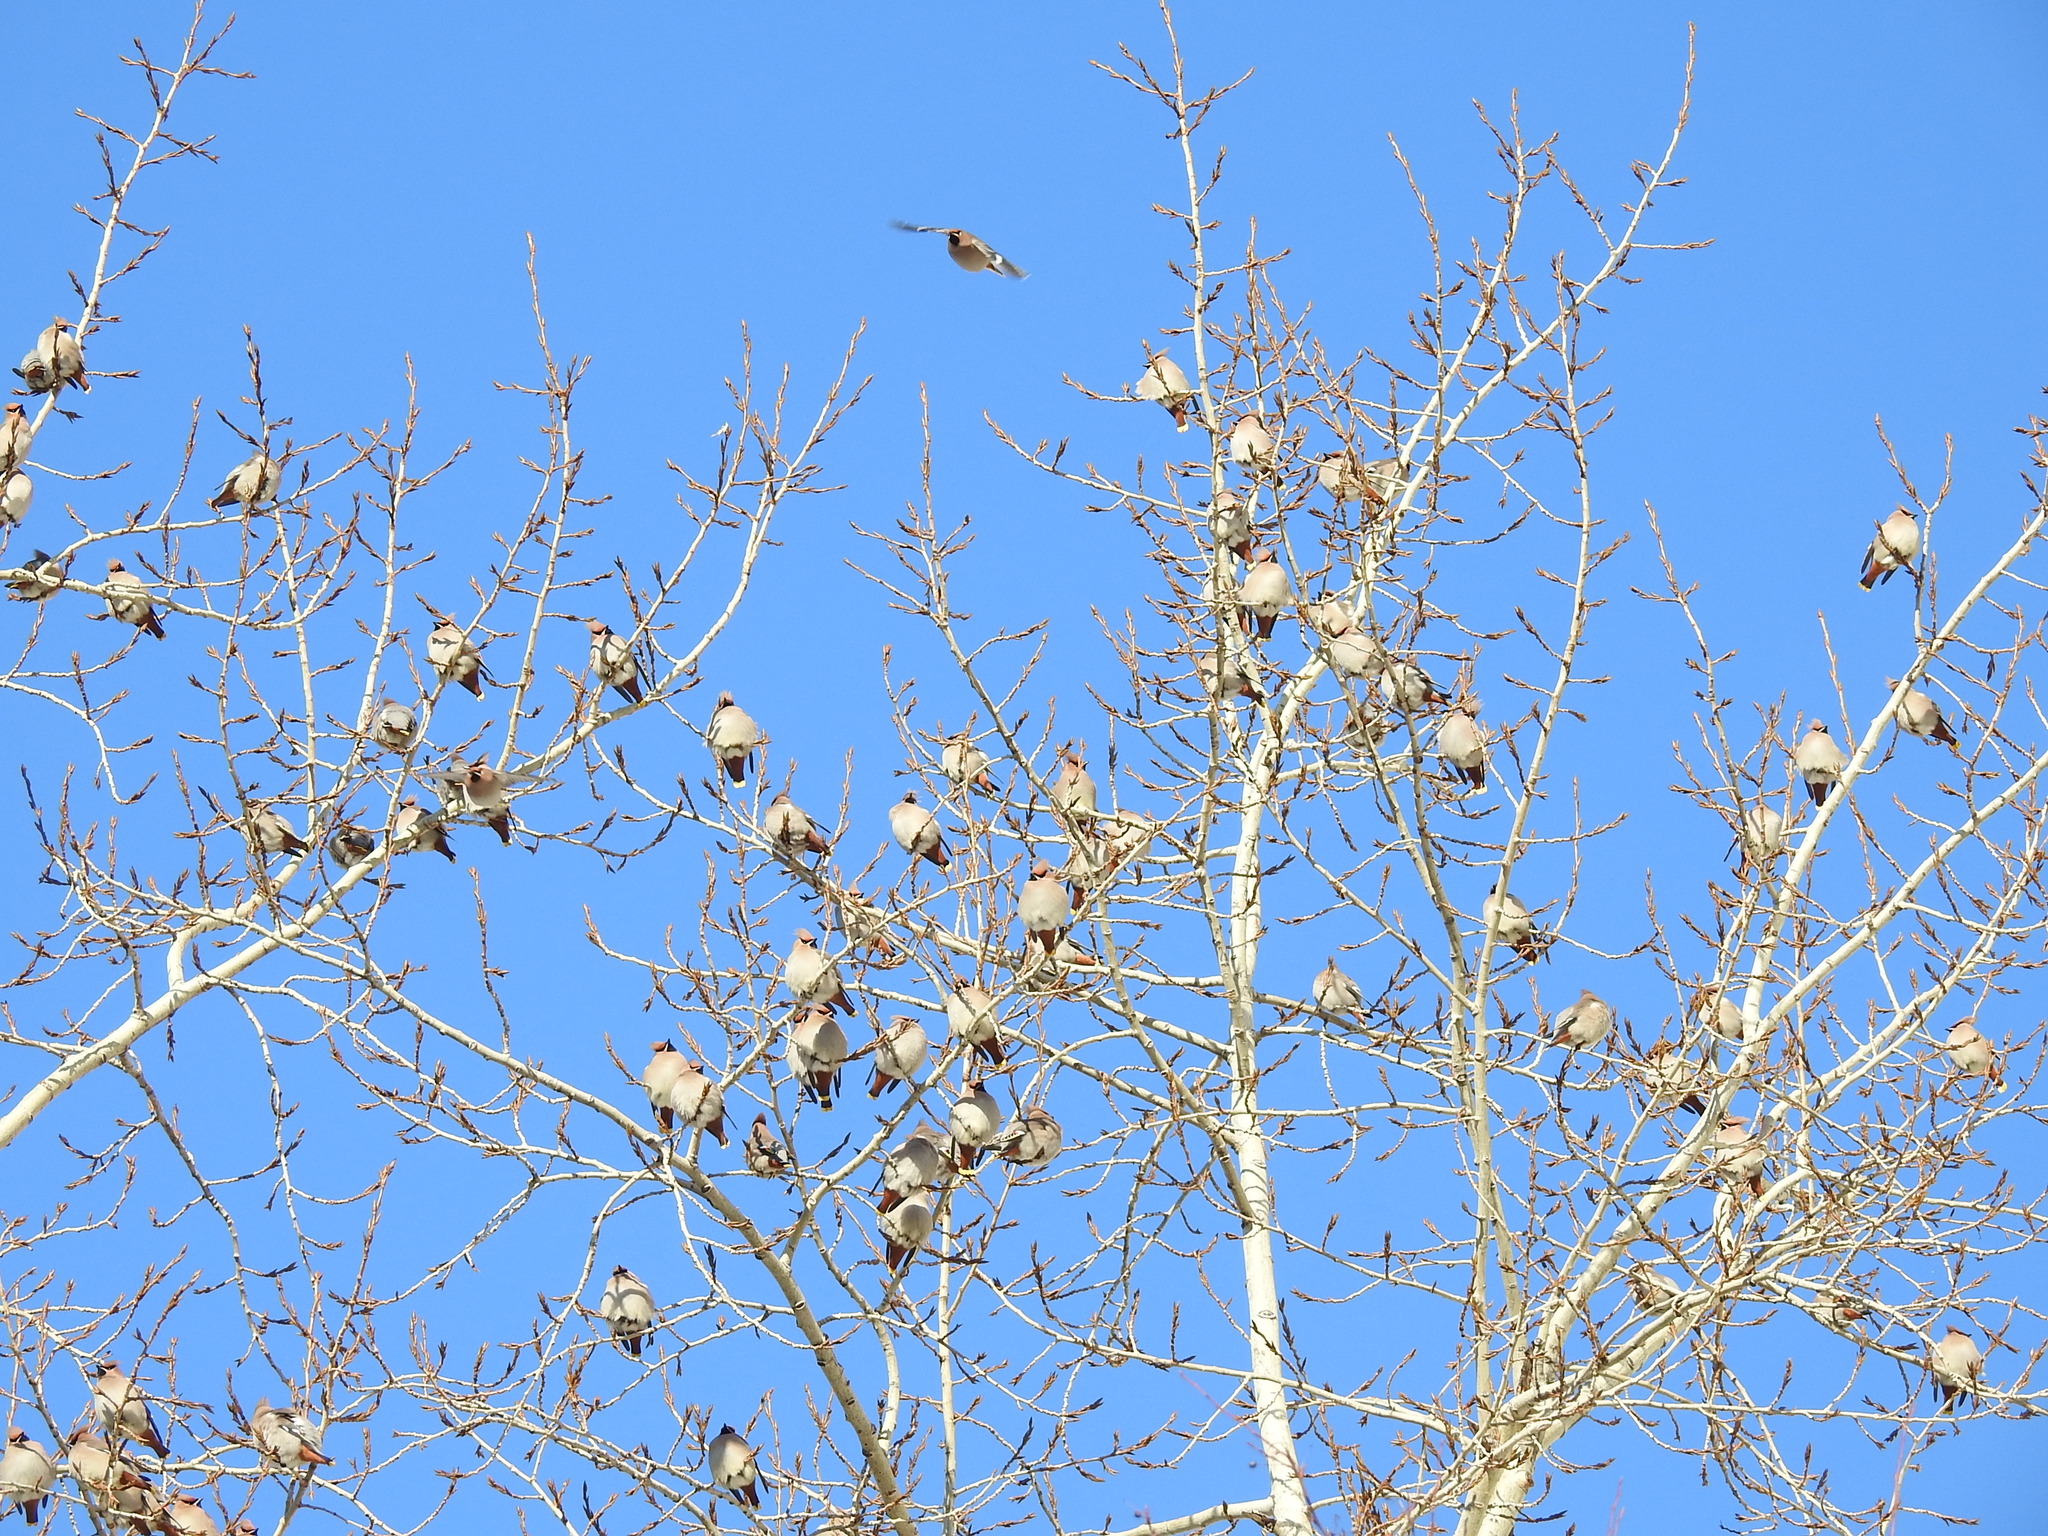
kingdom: Animalia
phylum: Chordata
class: Aves
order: Passeriformes
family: Bombycillidae
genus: Bombycilla
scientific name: Bombycilla garrulus
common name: Bohemian waxwing
